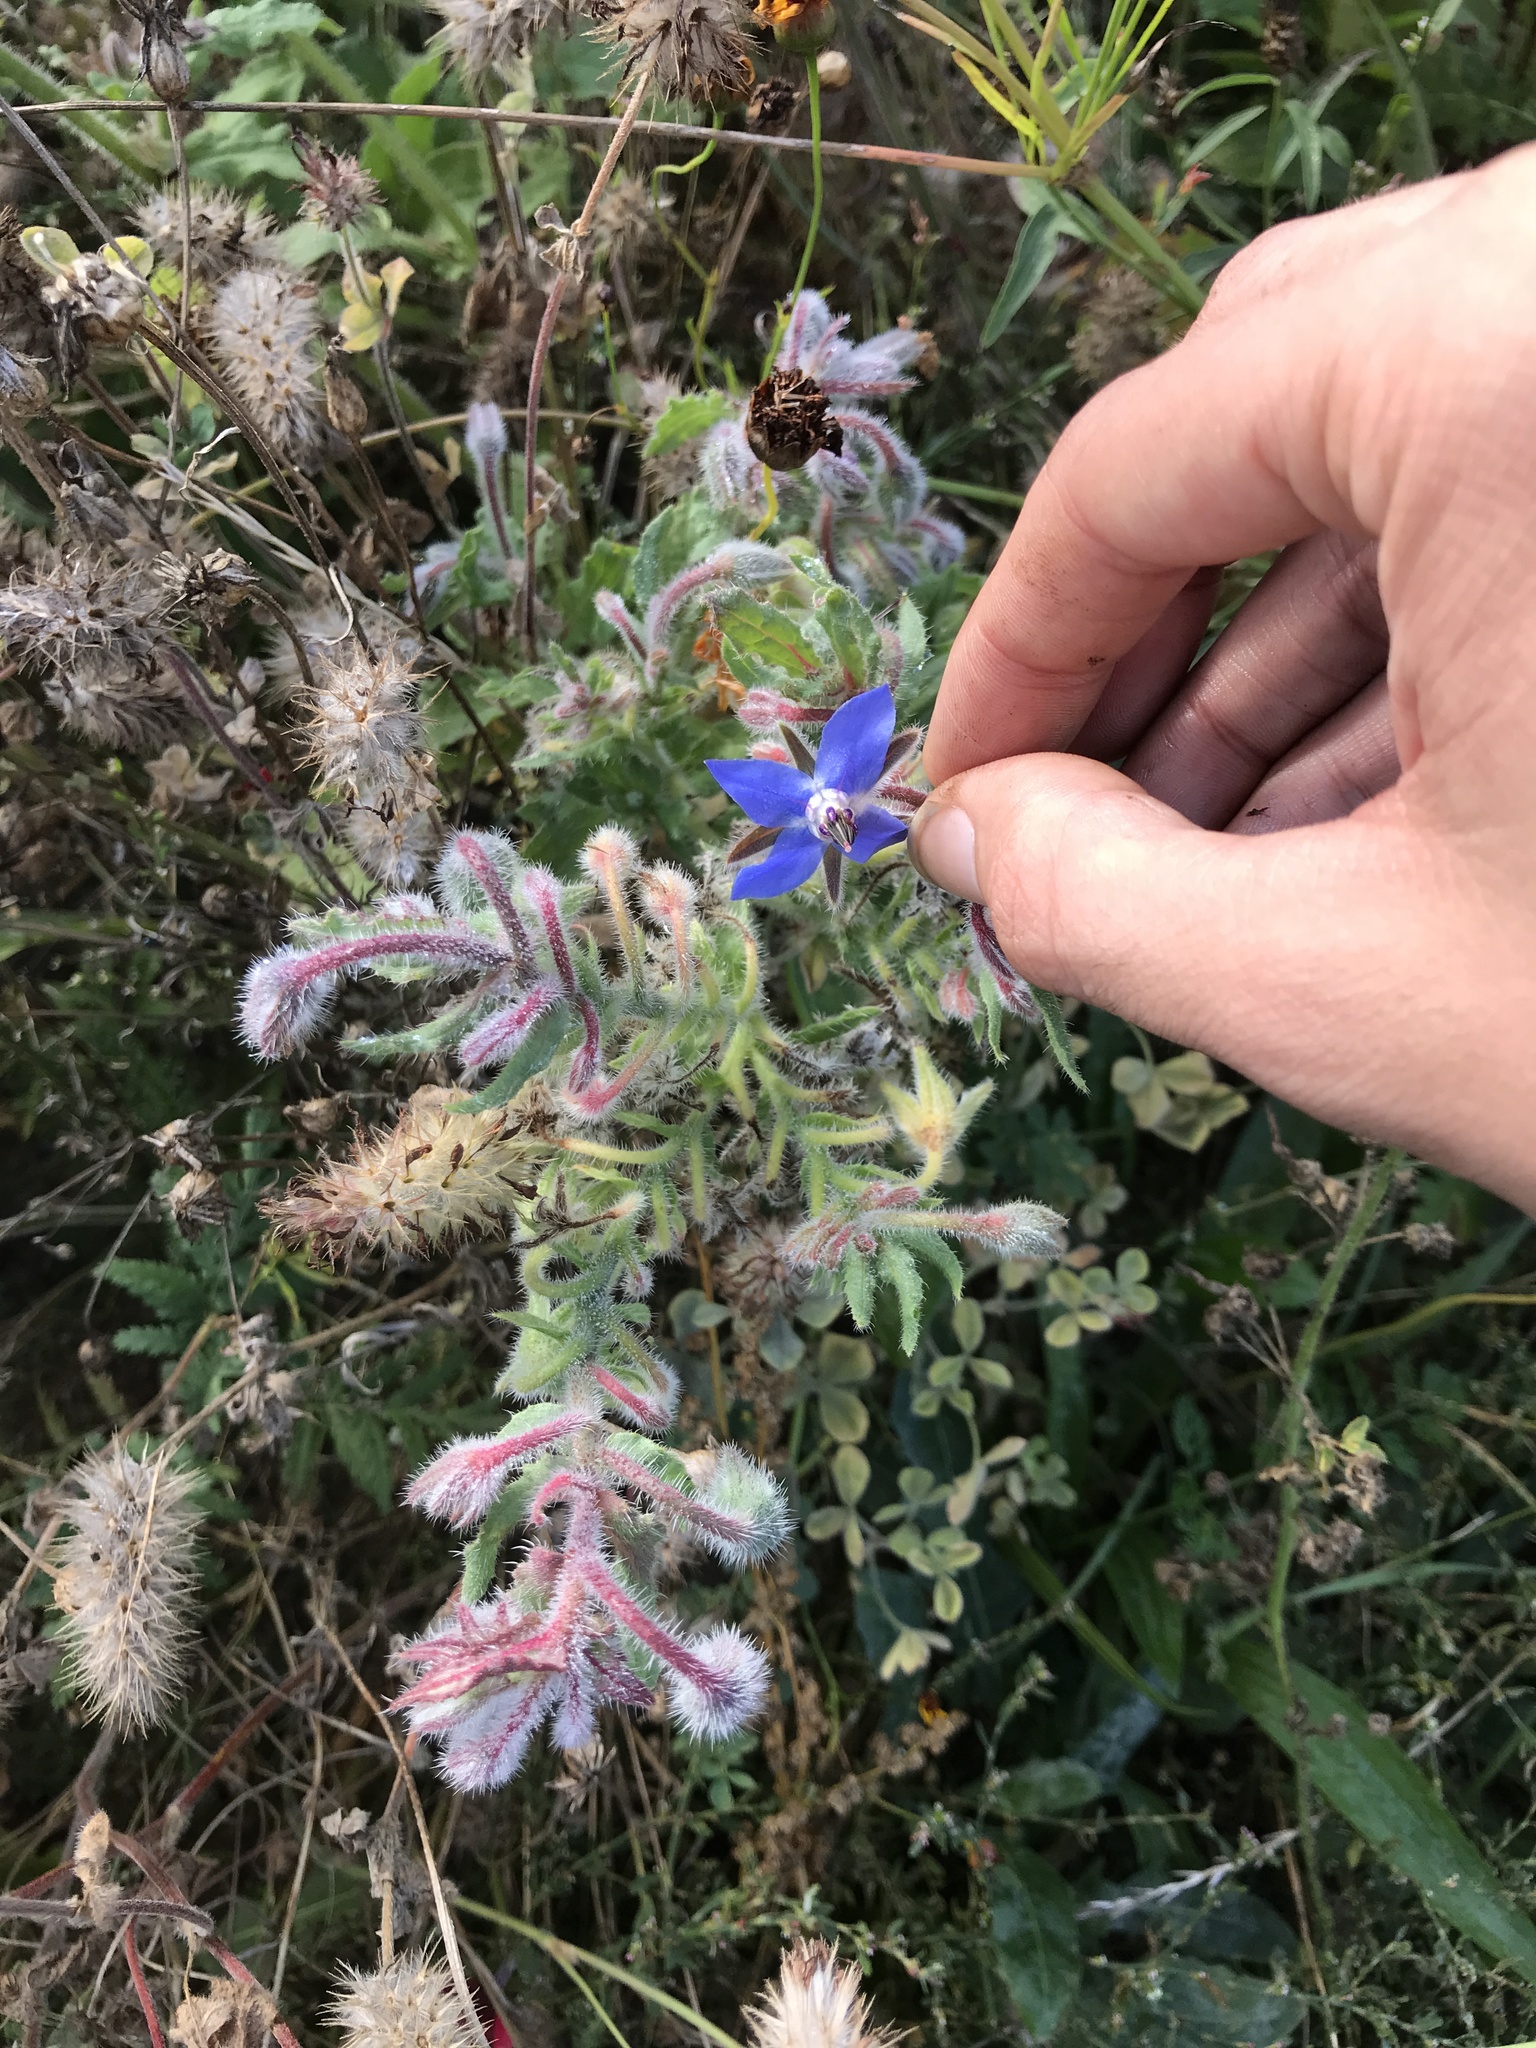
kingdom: Plantae
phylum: Tracheophyta
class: Magnoliopsida
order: Boraginales
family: Boraginaceae
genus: Borago
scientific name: Borago officinalis
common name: Borage
